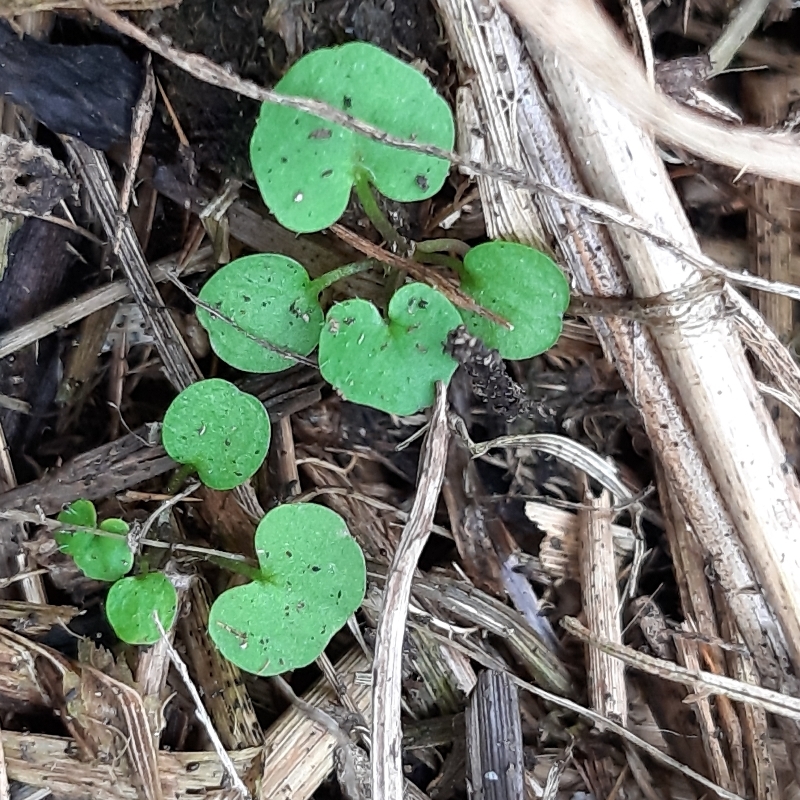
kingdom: Plantae
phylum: Tracheophyta
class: Magnoliopsida
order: Brassicales
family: Brassicaceae
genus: Cardamine
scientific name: Cardamine hirsuta
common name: Hairy bittercress
